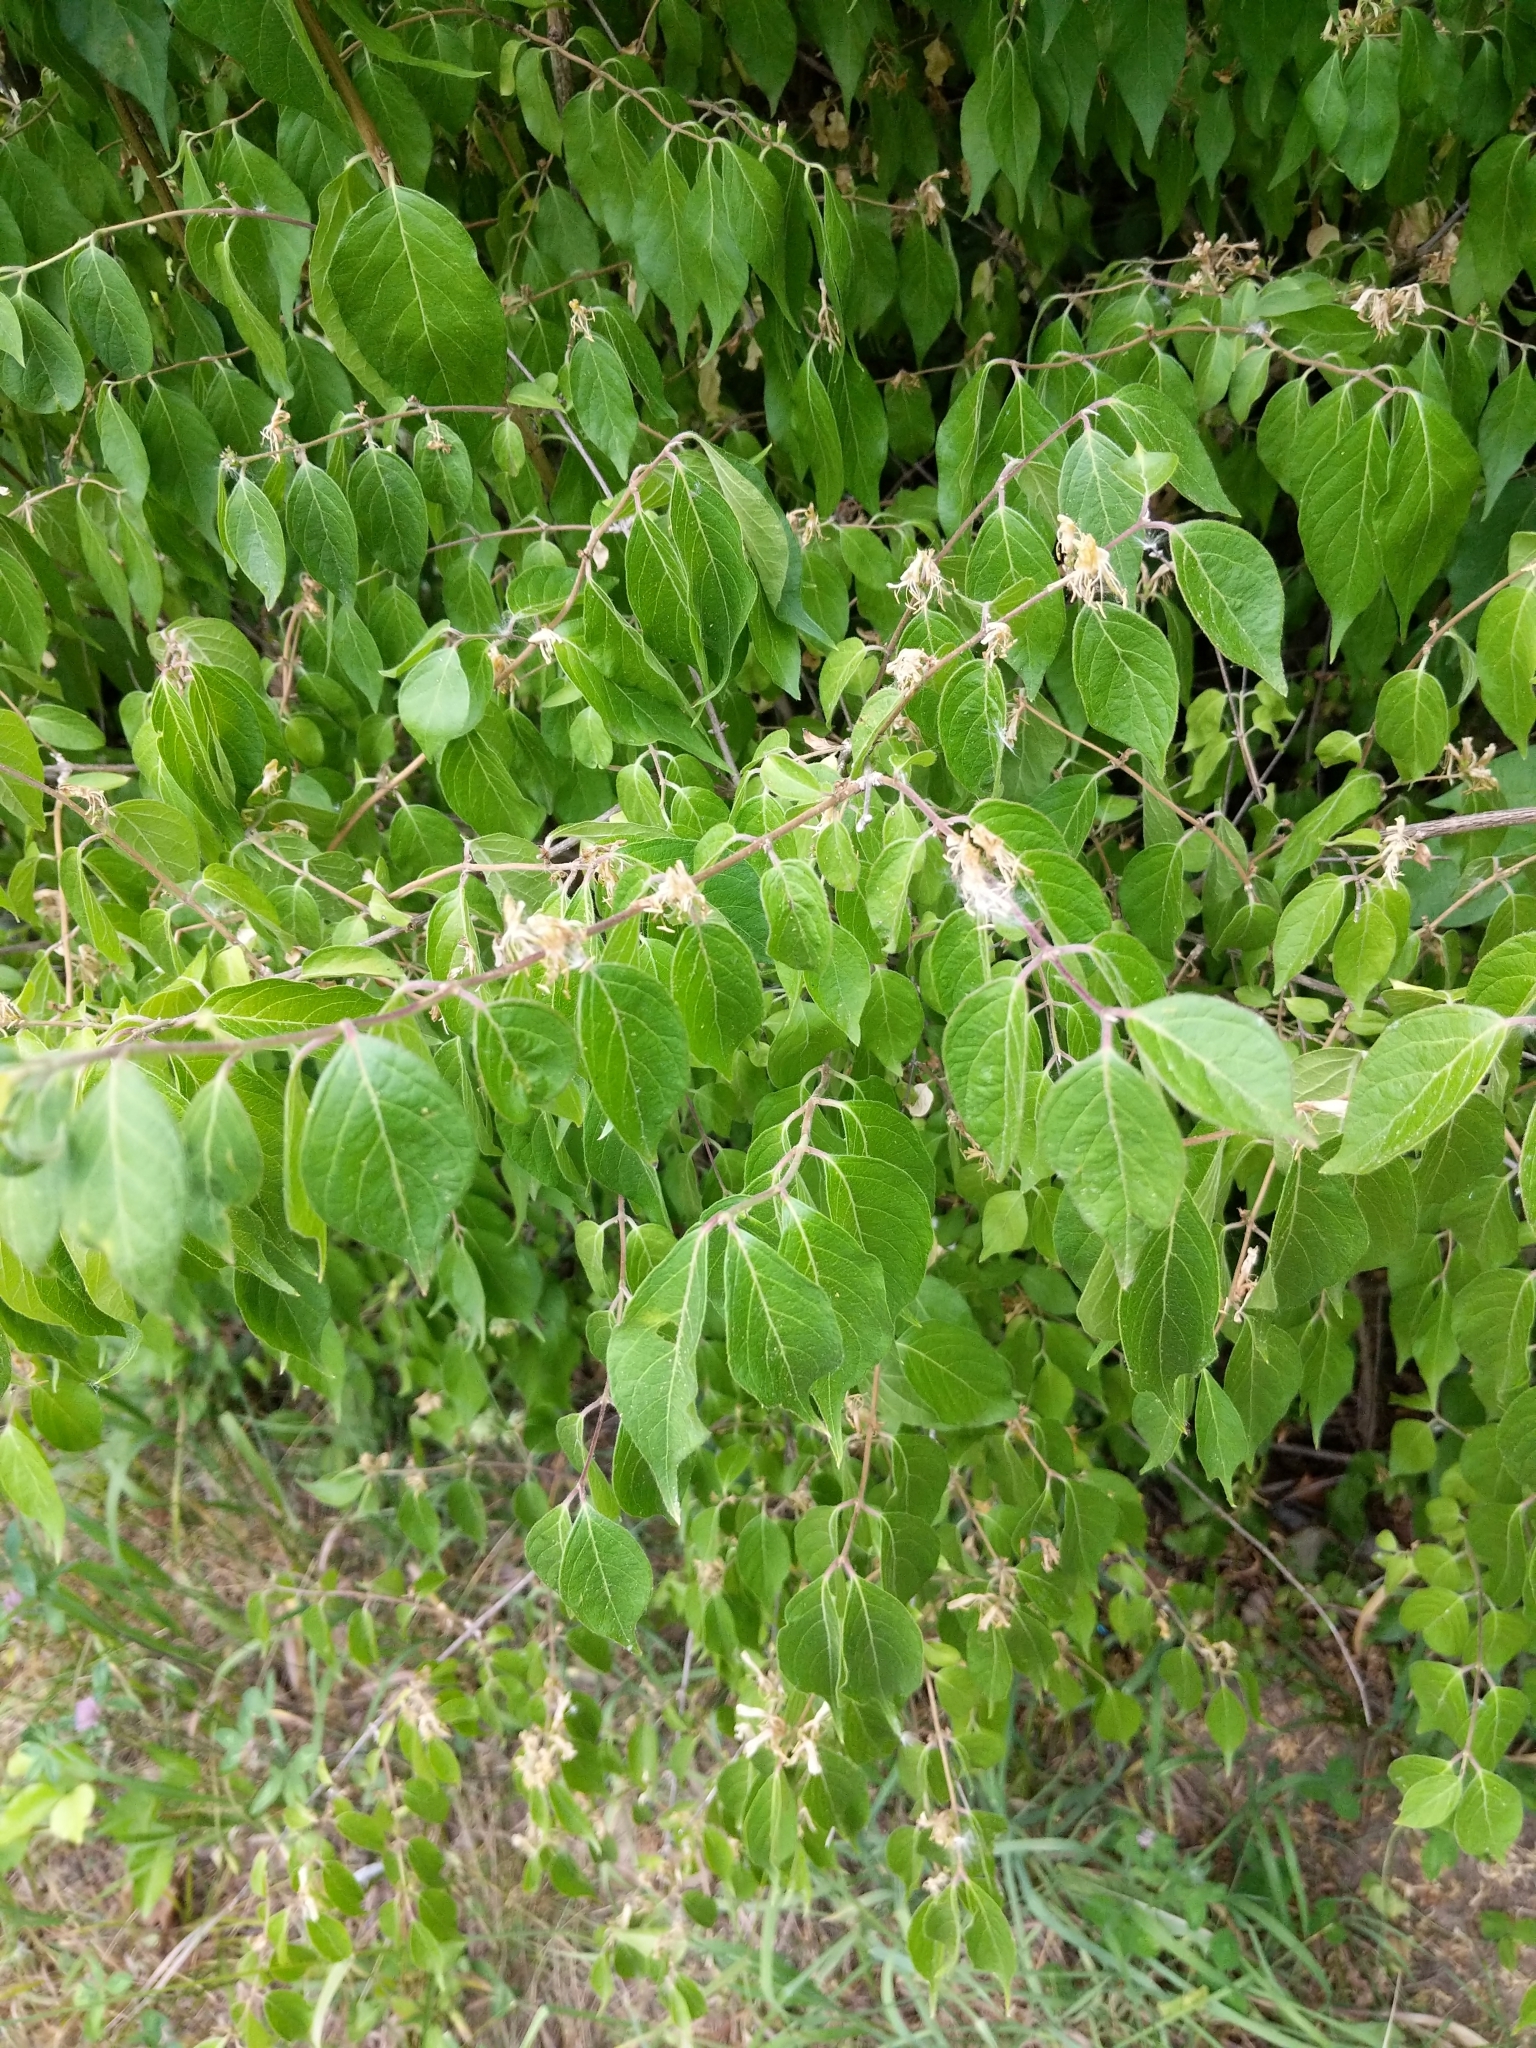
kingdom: Plantae
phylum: Tracheophyta
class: Magnoliopsida
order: Dipsacales
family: Caprifoliaceae
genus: Lonicera
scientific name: Lonicera maackii
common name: Amur honeysuckle
